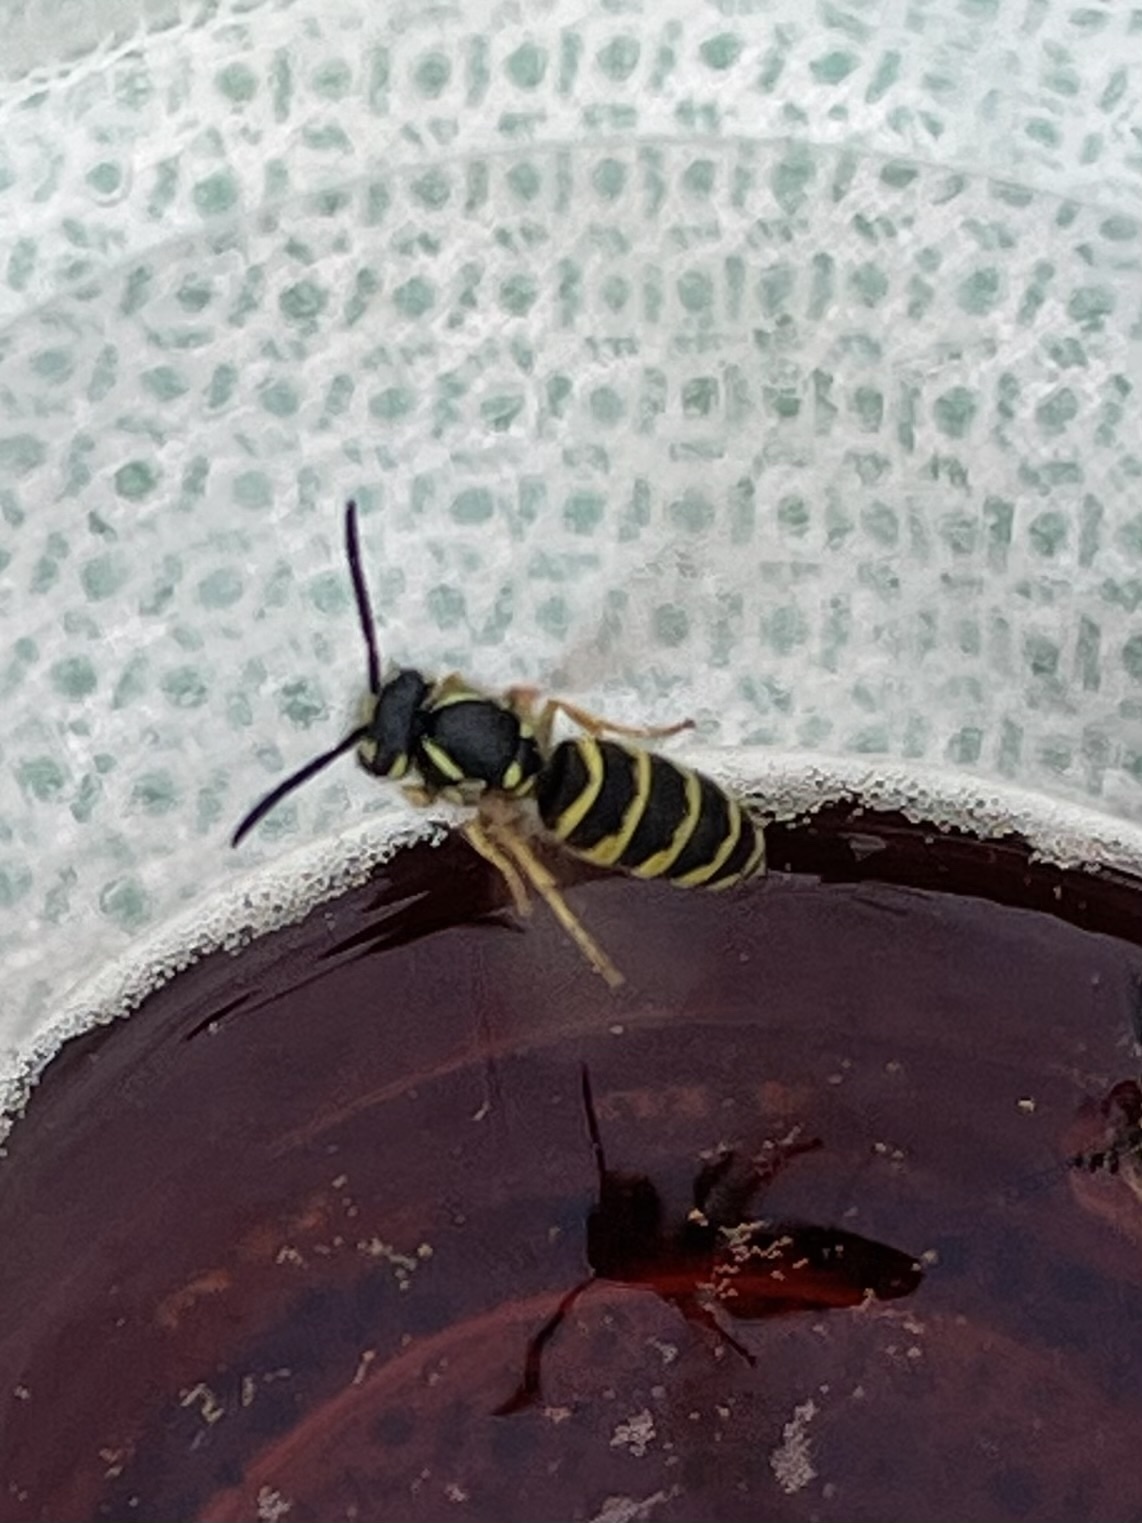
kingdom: Animalia
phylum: Arthropoda
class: Insecta
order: Hymenoptera
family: Vespidae
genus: Vespula
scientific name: Vespula vulgaris
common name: Common wasp
